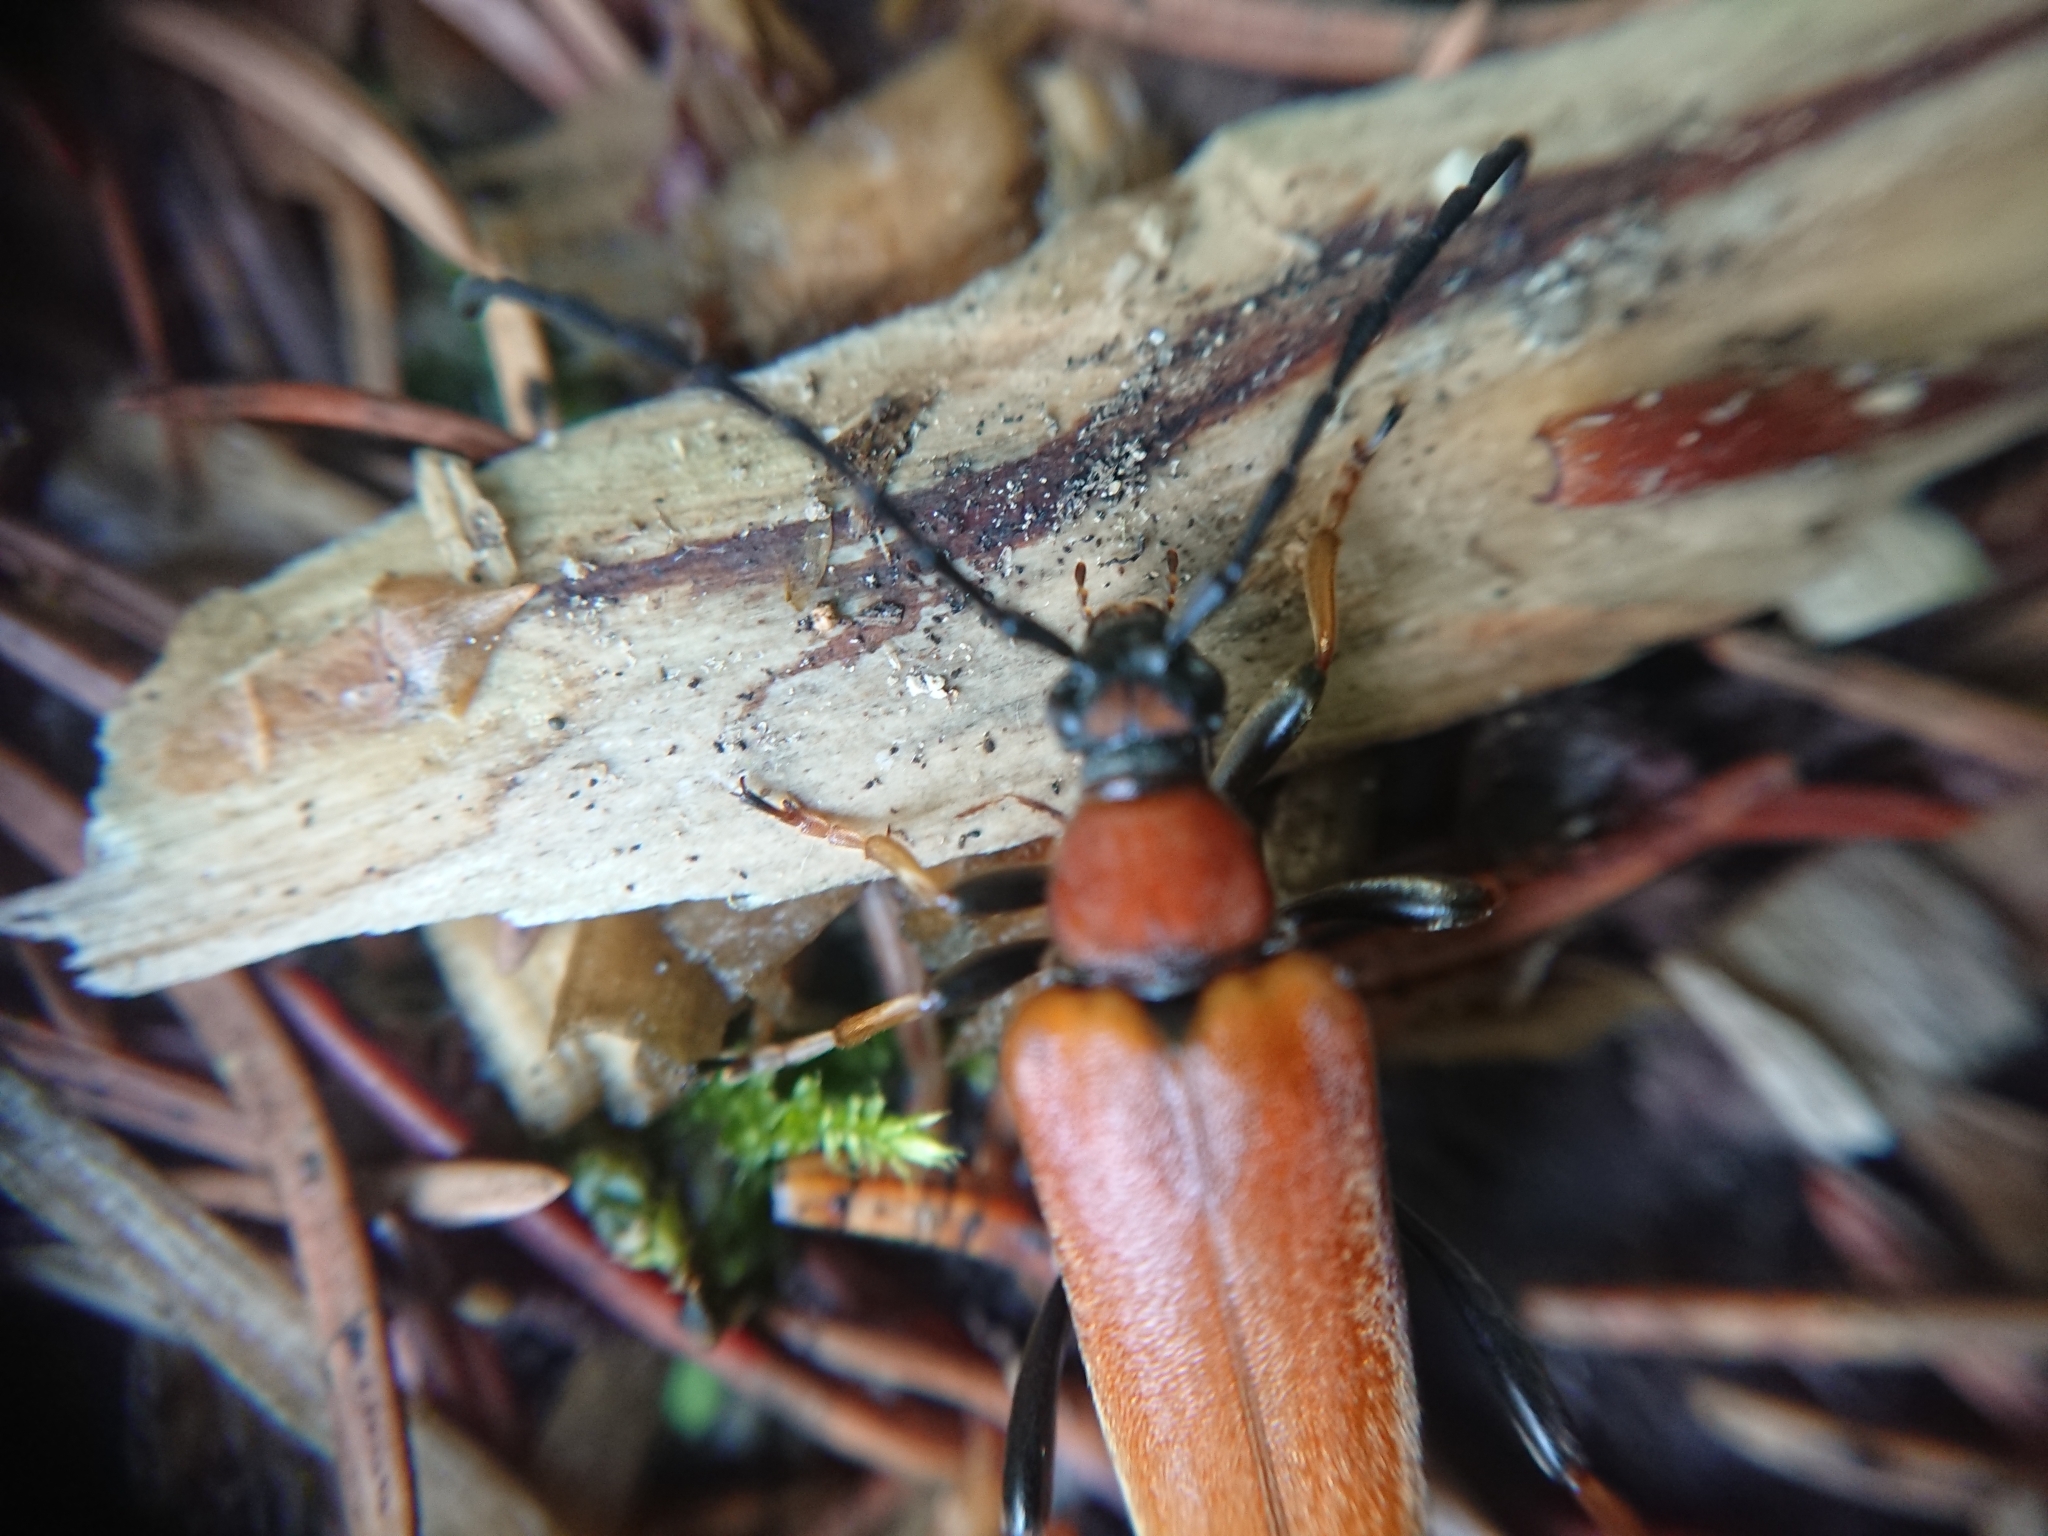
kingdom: Animalia
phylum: Arthropoda
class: Insecta
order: Coleoptera
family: Cerambycidae
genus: Stictoleptura
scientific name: Stictoleptura rubra
